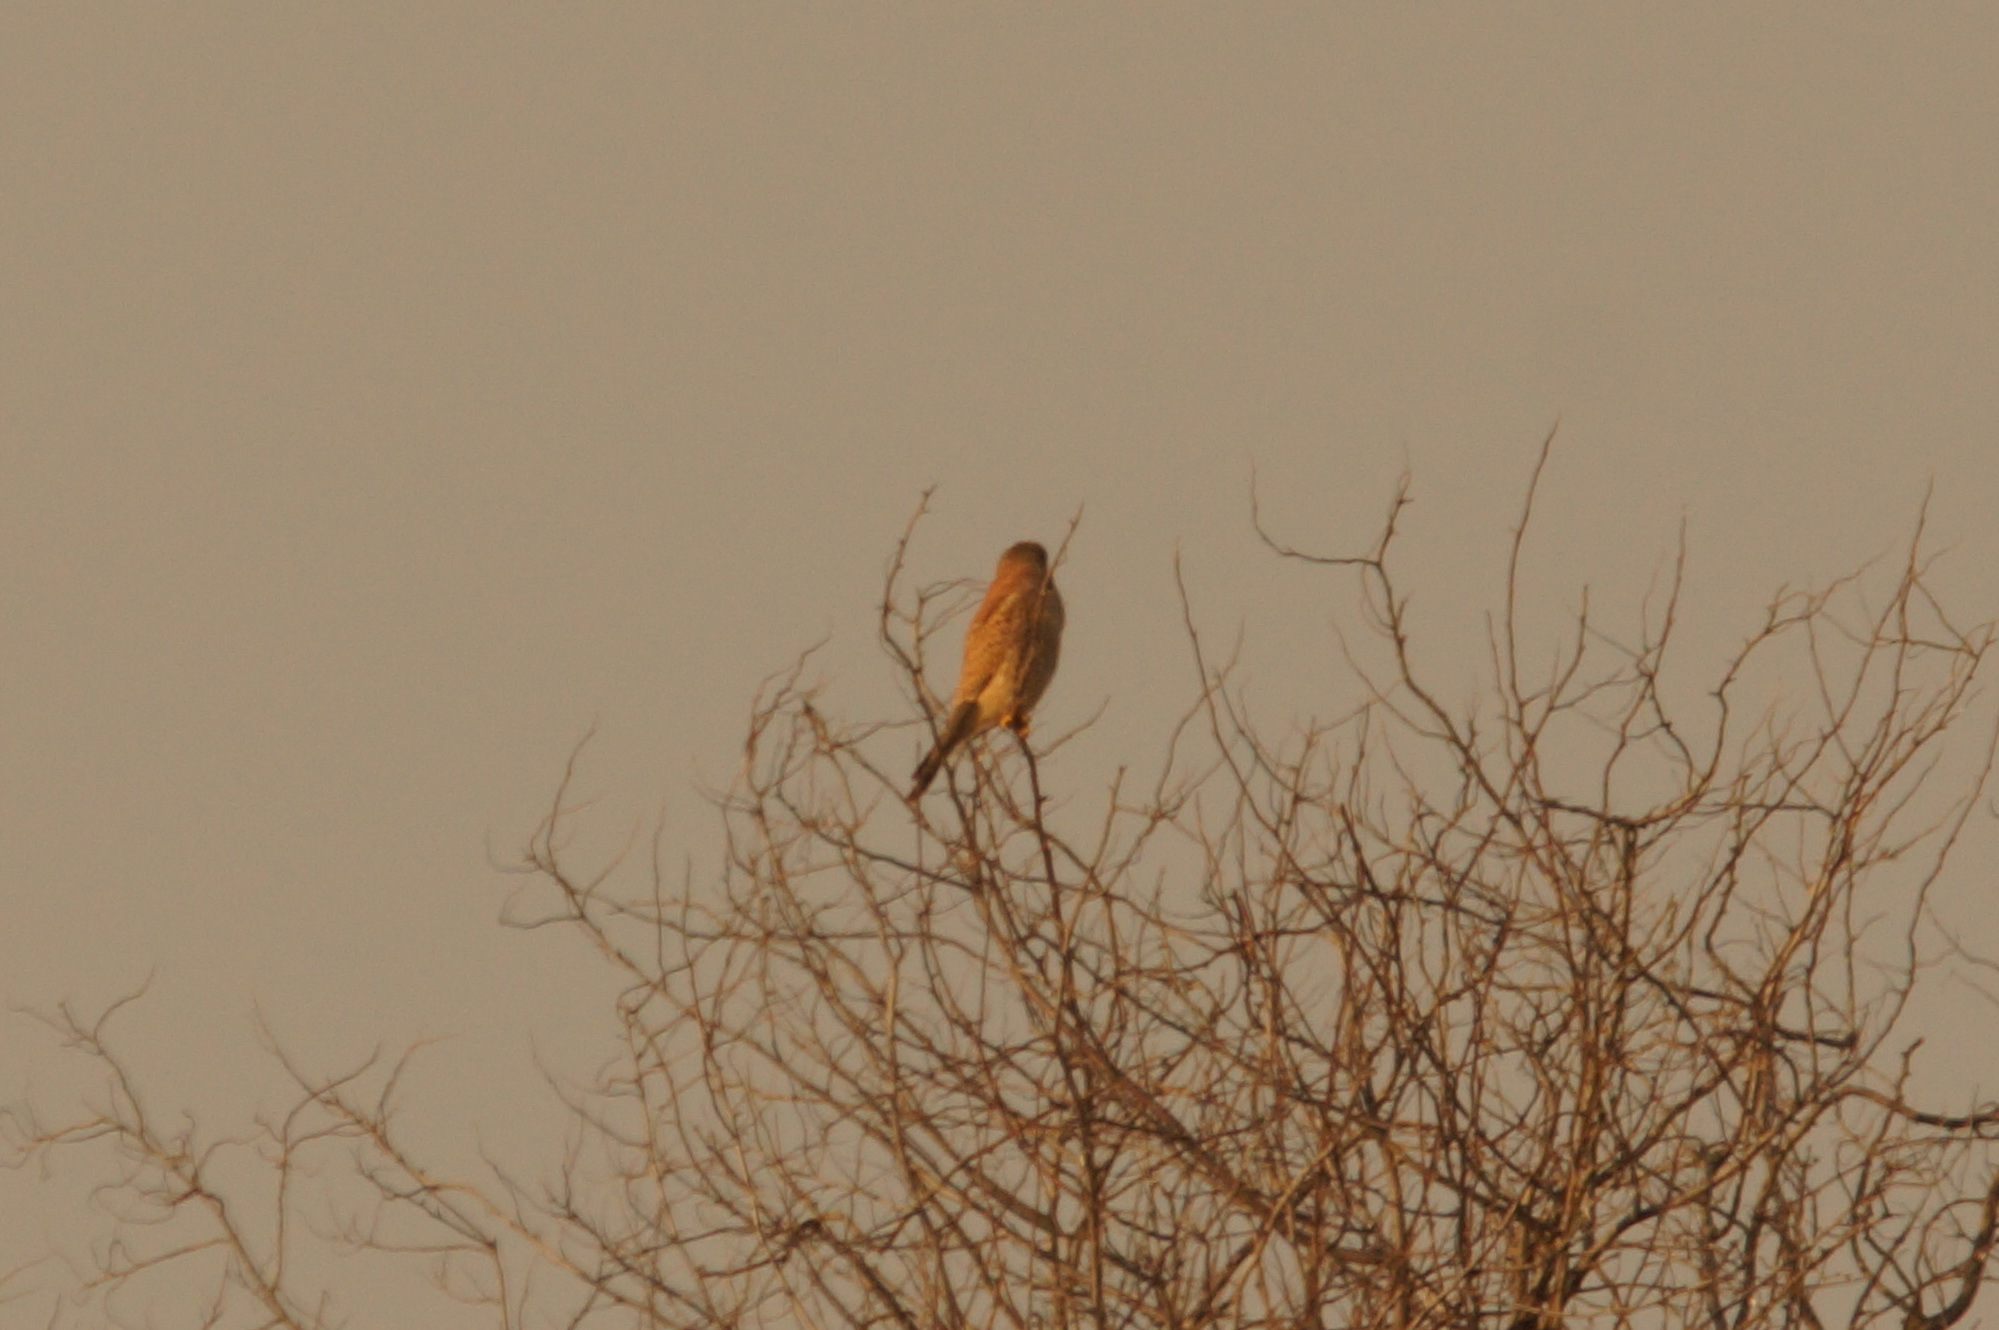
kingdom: Animalia
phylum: Chordata
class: Aves
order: Falconiformes
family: Falconidae
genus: Falco
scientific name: Falco tinnunculus
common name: Common kestrel
